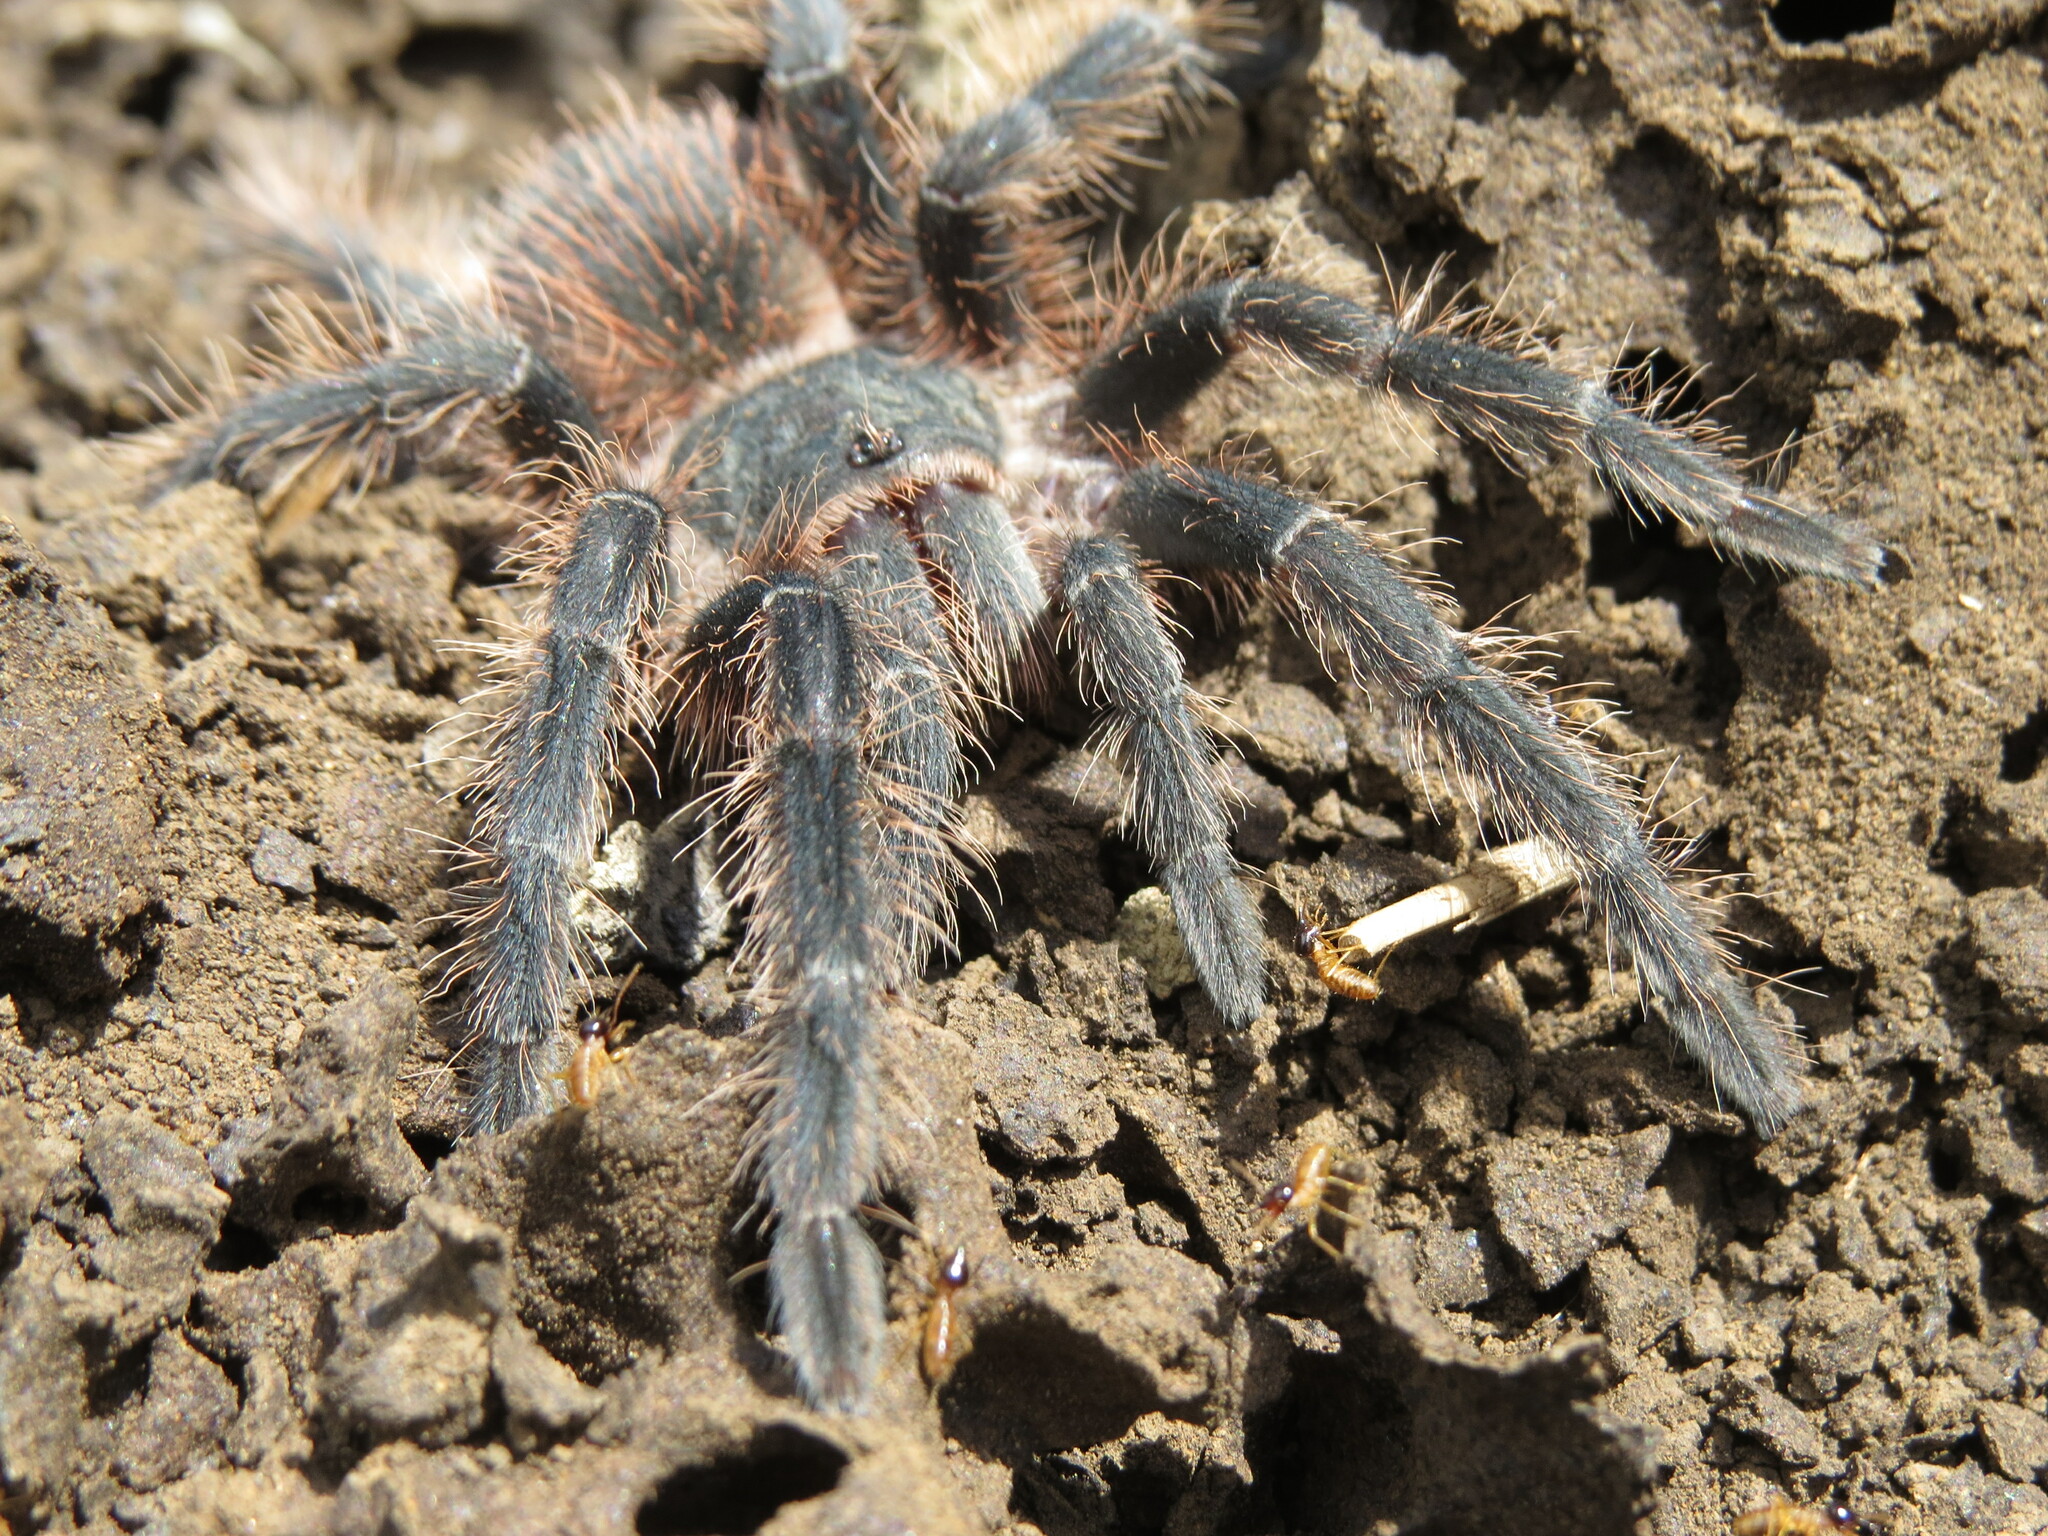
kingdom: Animalia
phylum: Arthropoda
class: Arachnida
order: Araneae
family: Theraphosidae
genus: Lasiodora
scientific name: Lasiodora
